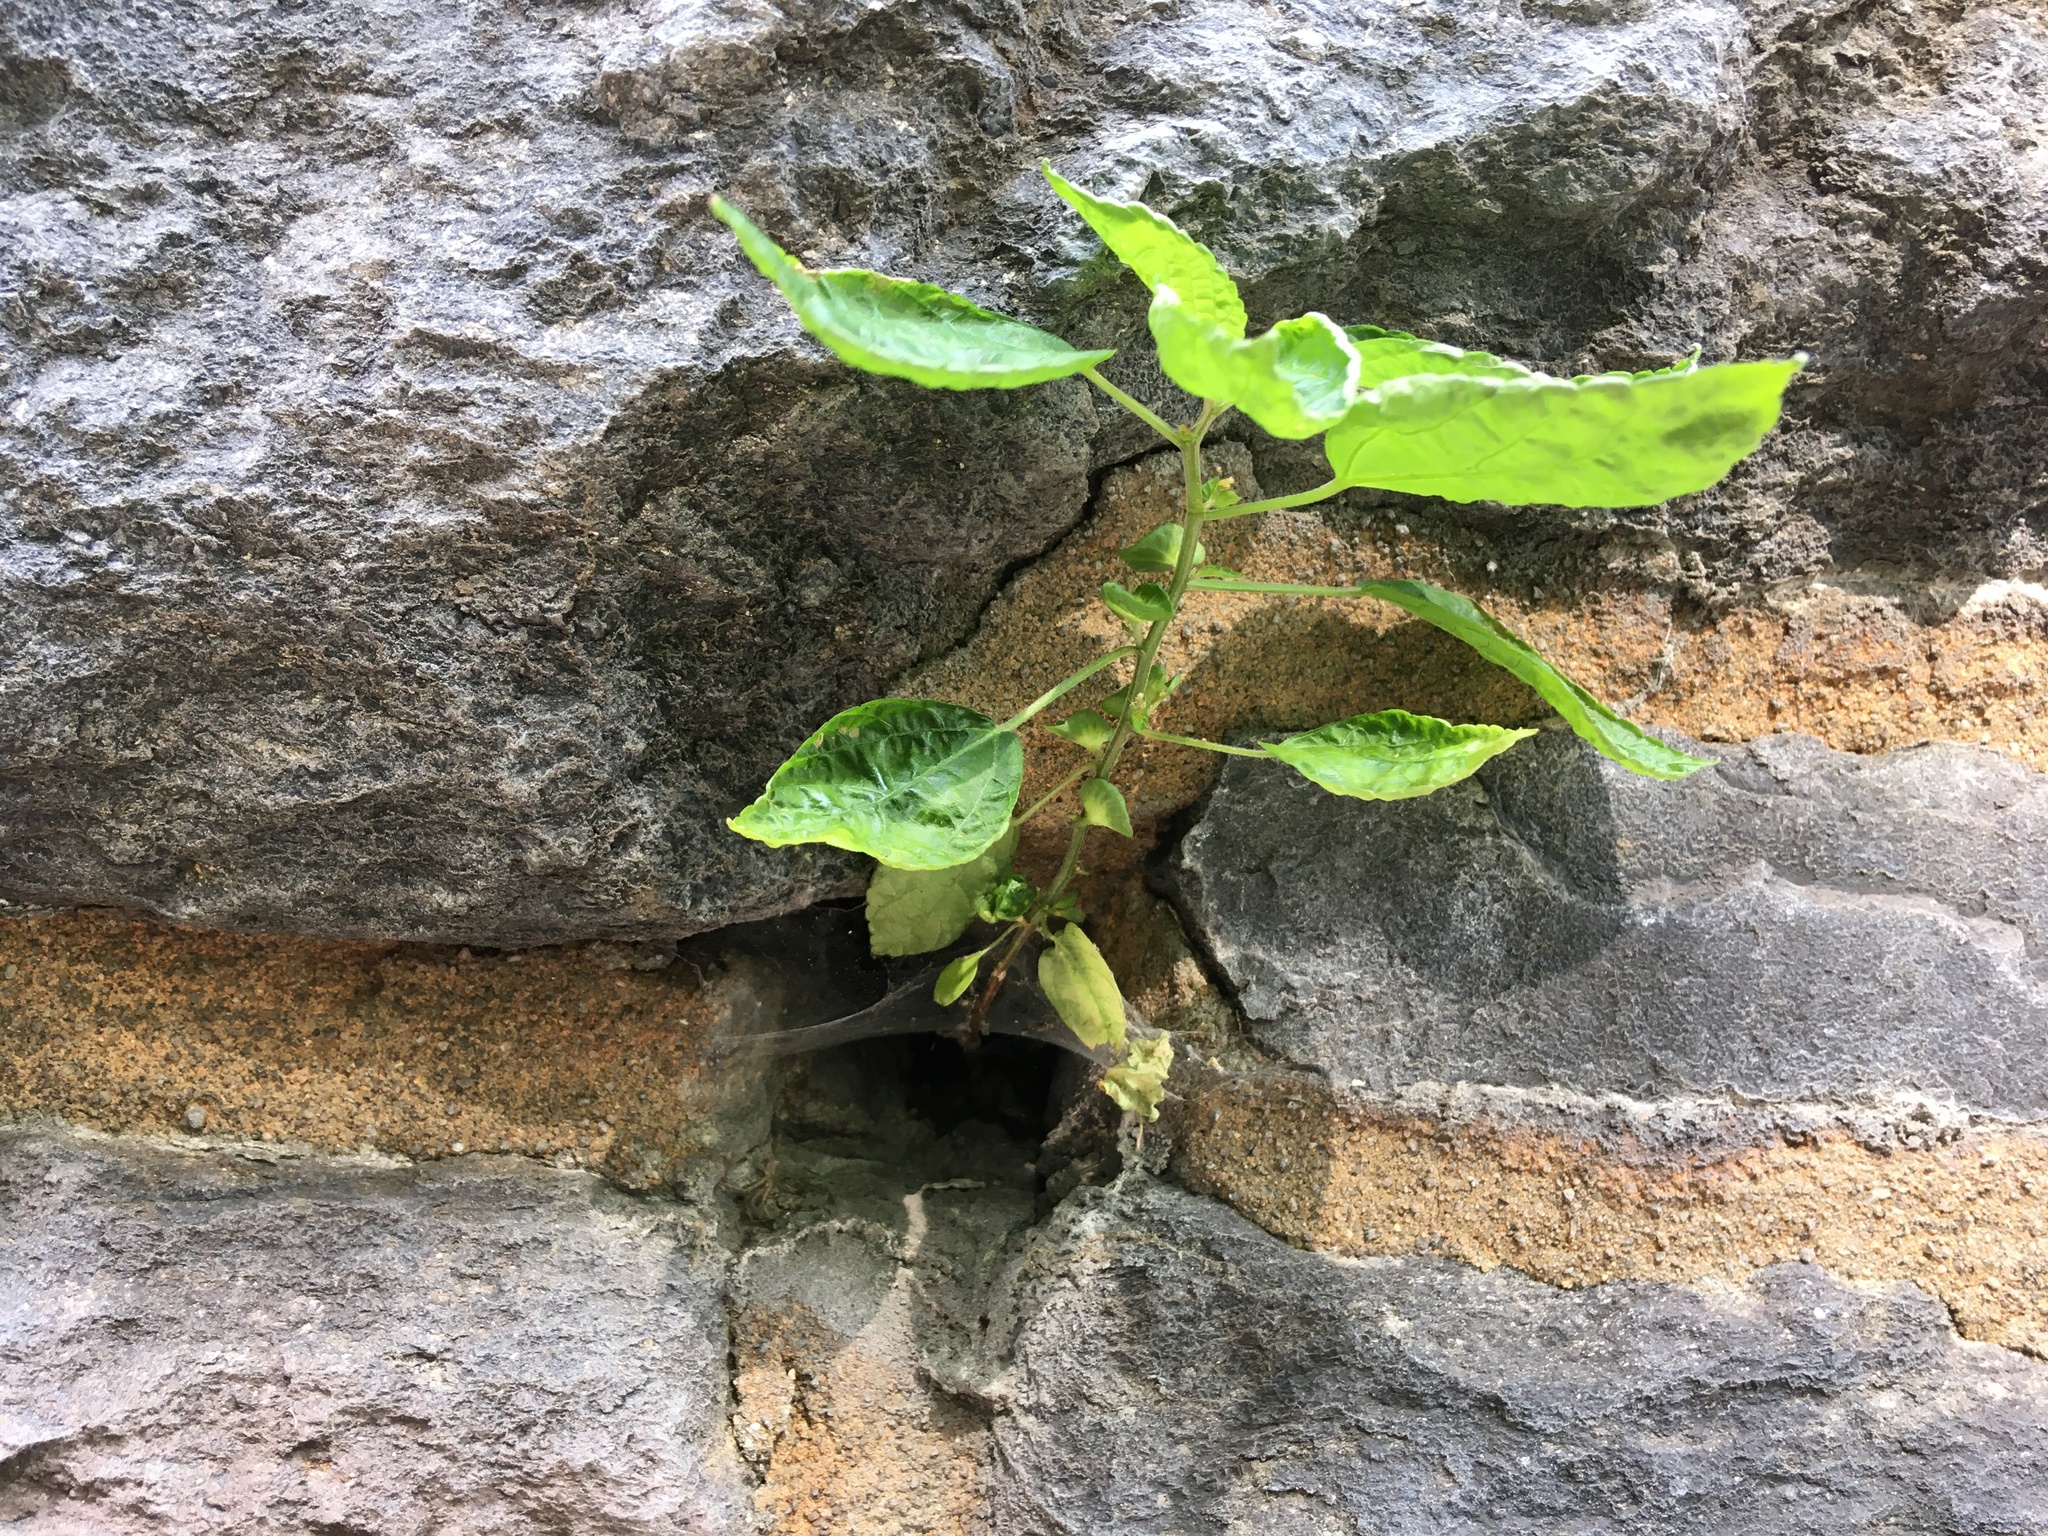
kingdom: Plantae
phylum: Tracheophyta
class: Magnoliopsida
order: Malpighiales
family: Euphorbiaceae
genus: Acalypha
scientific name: Acalypha australis
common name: Asian copperleaf
